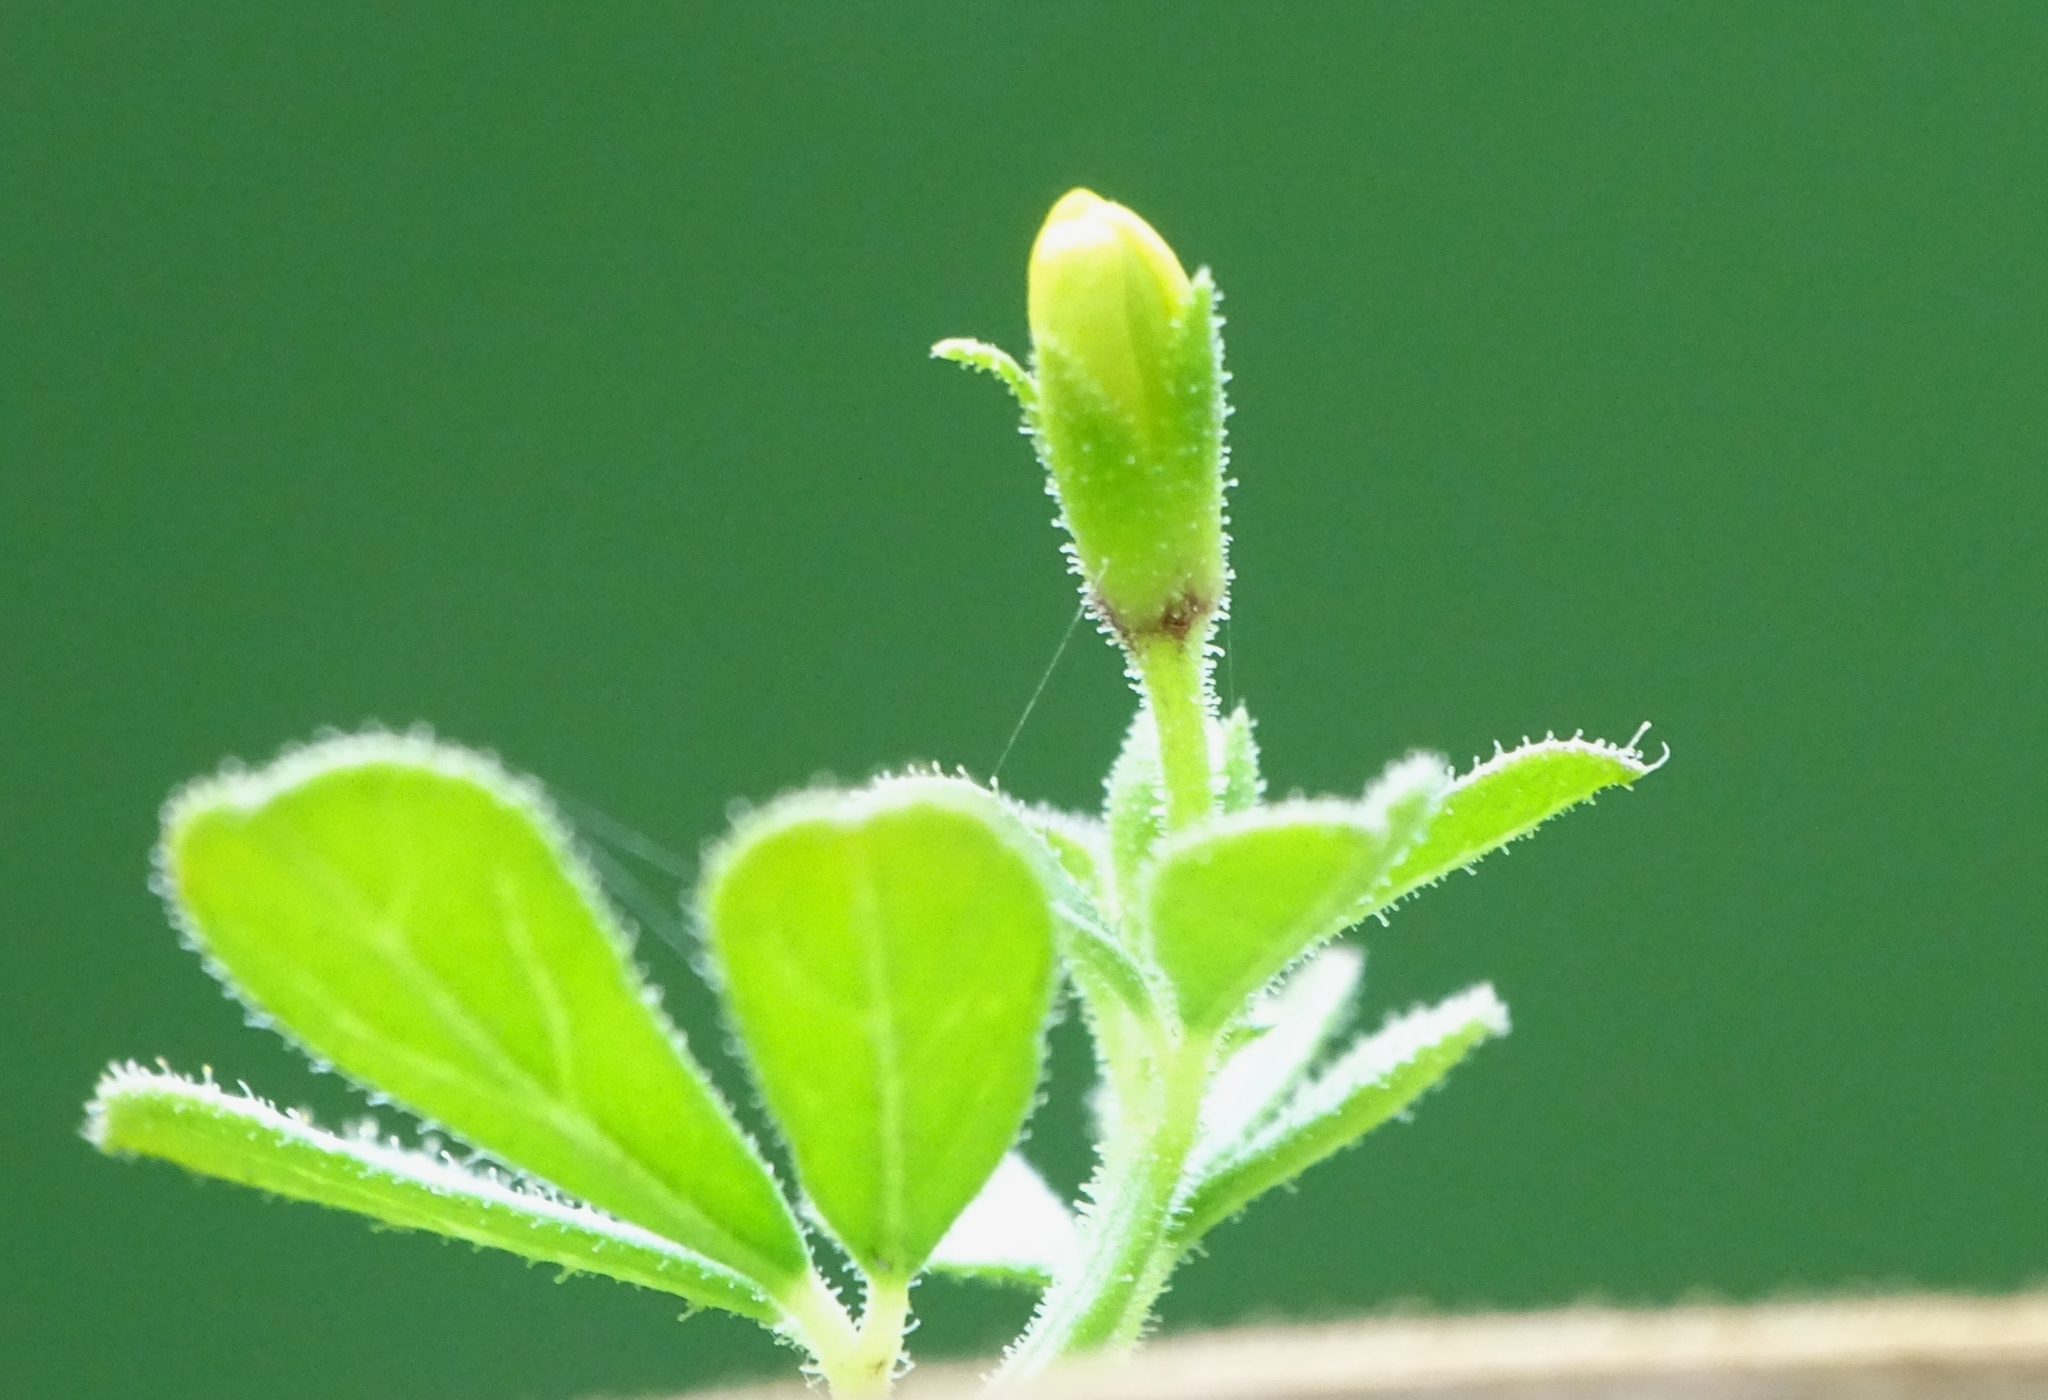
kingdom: Plantae
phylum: Tracheophyta
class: Magnoliopsida
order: Brassicales
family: Cleomaceae
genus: Arivela
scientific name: Arivela viscosa
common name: Asian spiderflower
